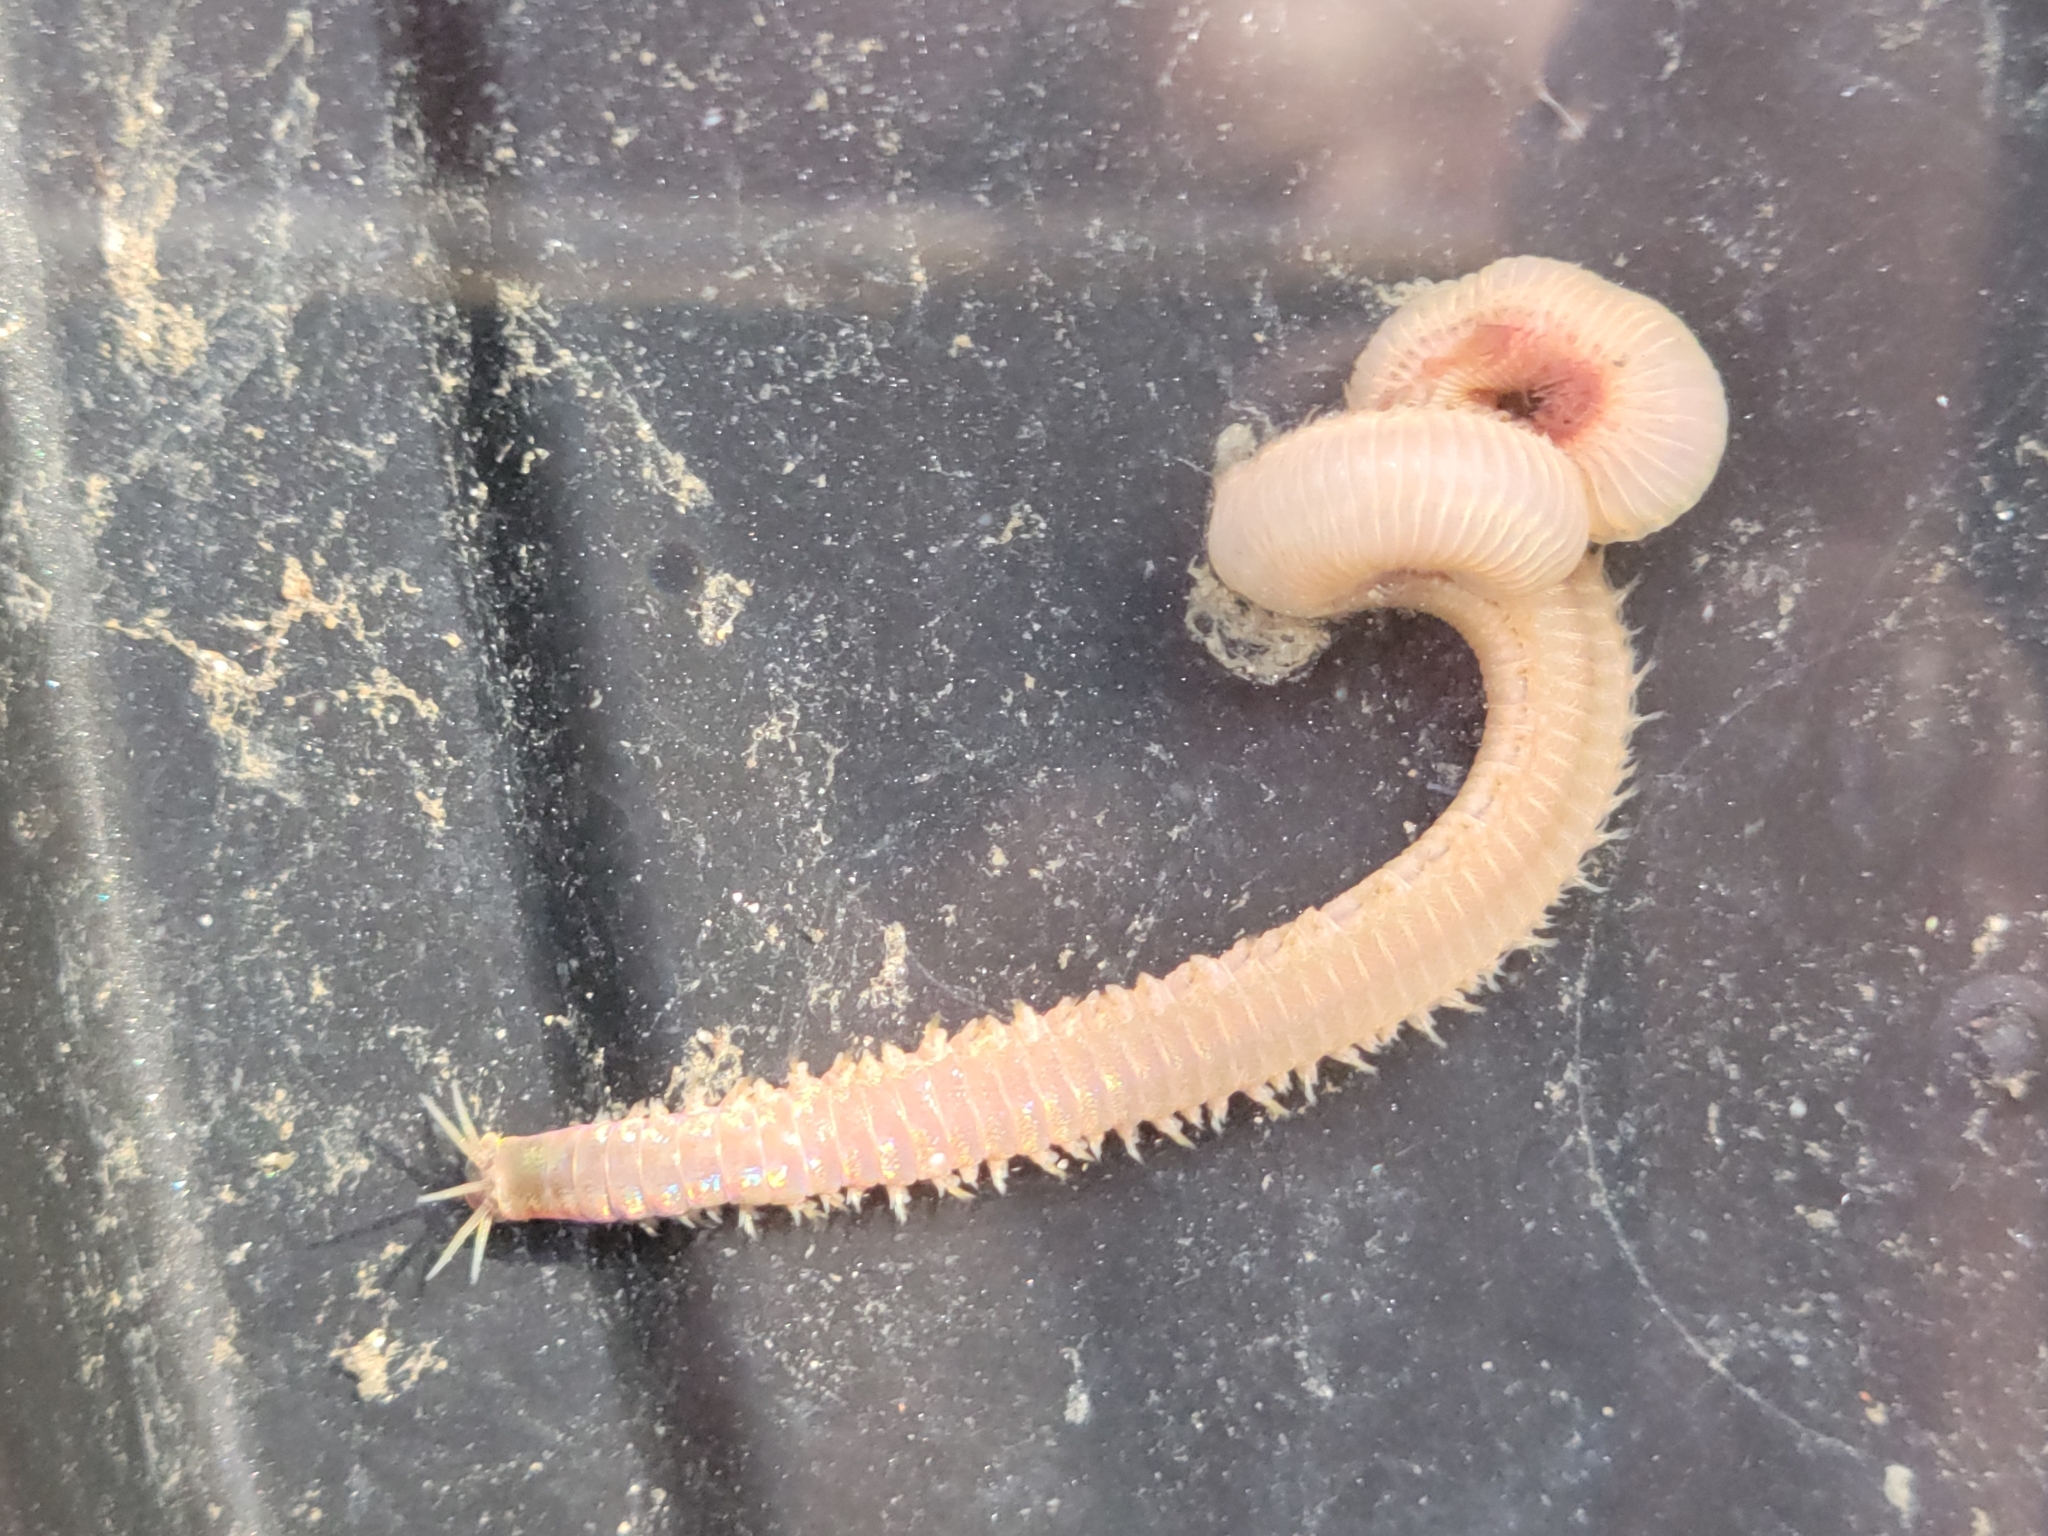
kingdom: Animalia
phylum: Annelida
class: Polychaeta
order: Eunicida
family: Eunicidae
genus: Marphysa
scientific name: Marphysa californica
